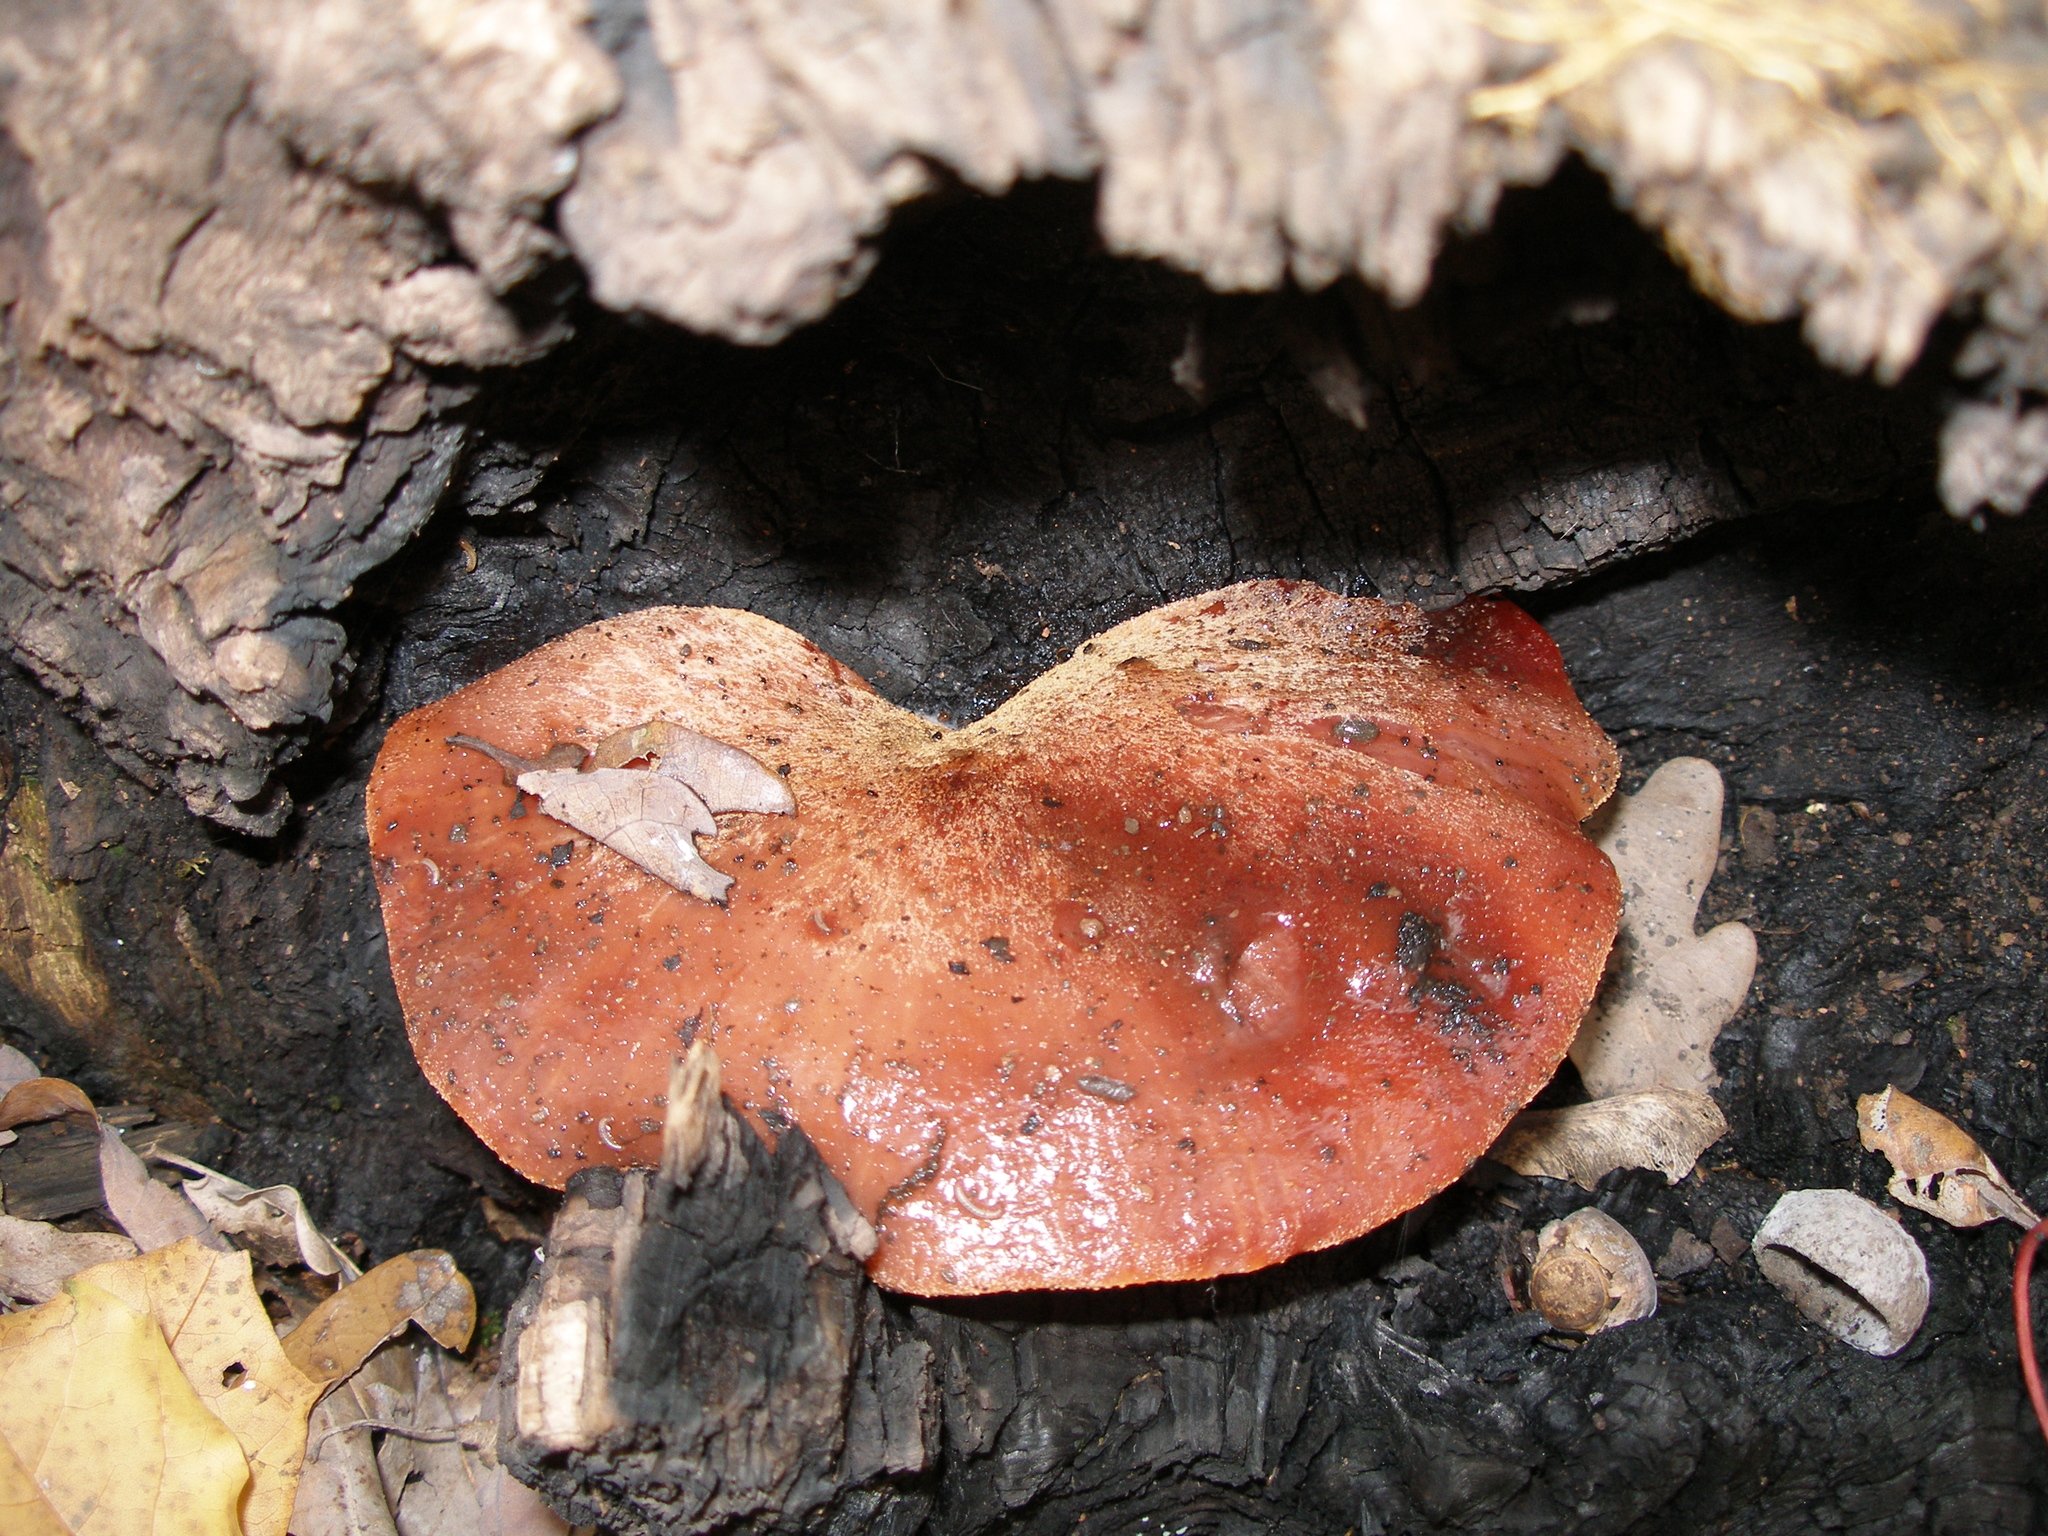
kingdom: Fungi
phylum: Basidiomycota
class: Agaricomycetes
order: Agaricales
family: Fistulinaceae
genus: Fistulina
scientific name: Fistulina hepatica
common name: Beef-steak fungus
